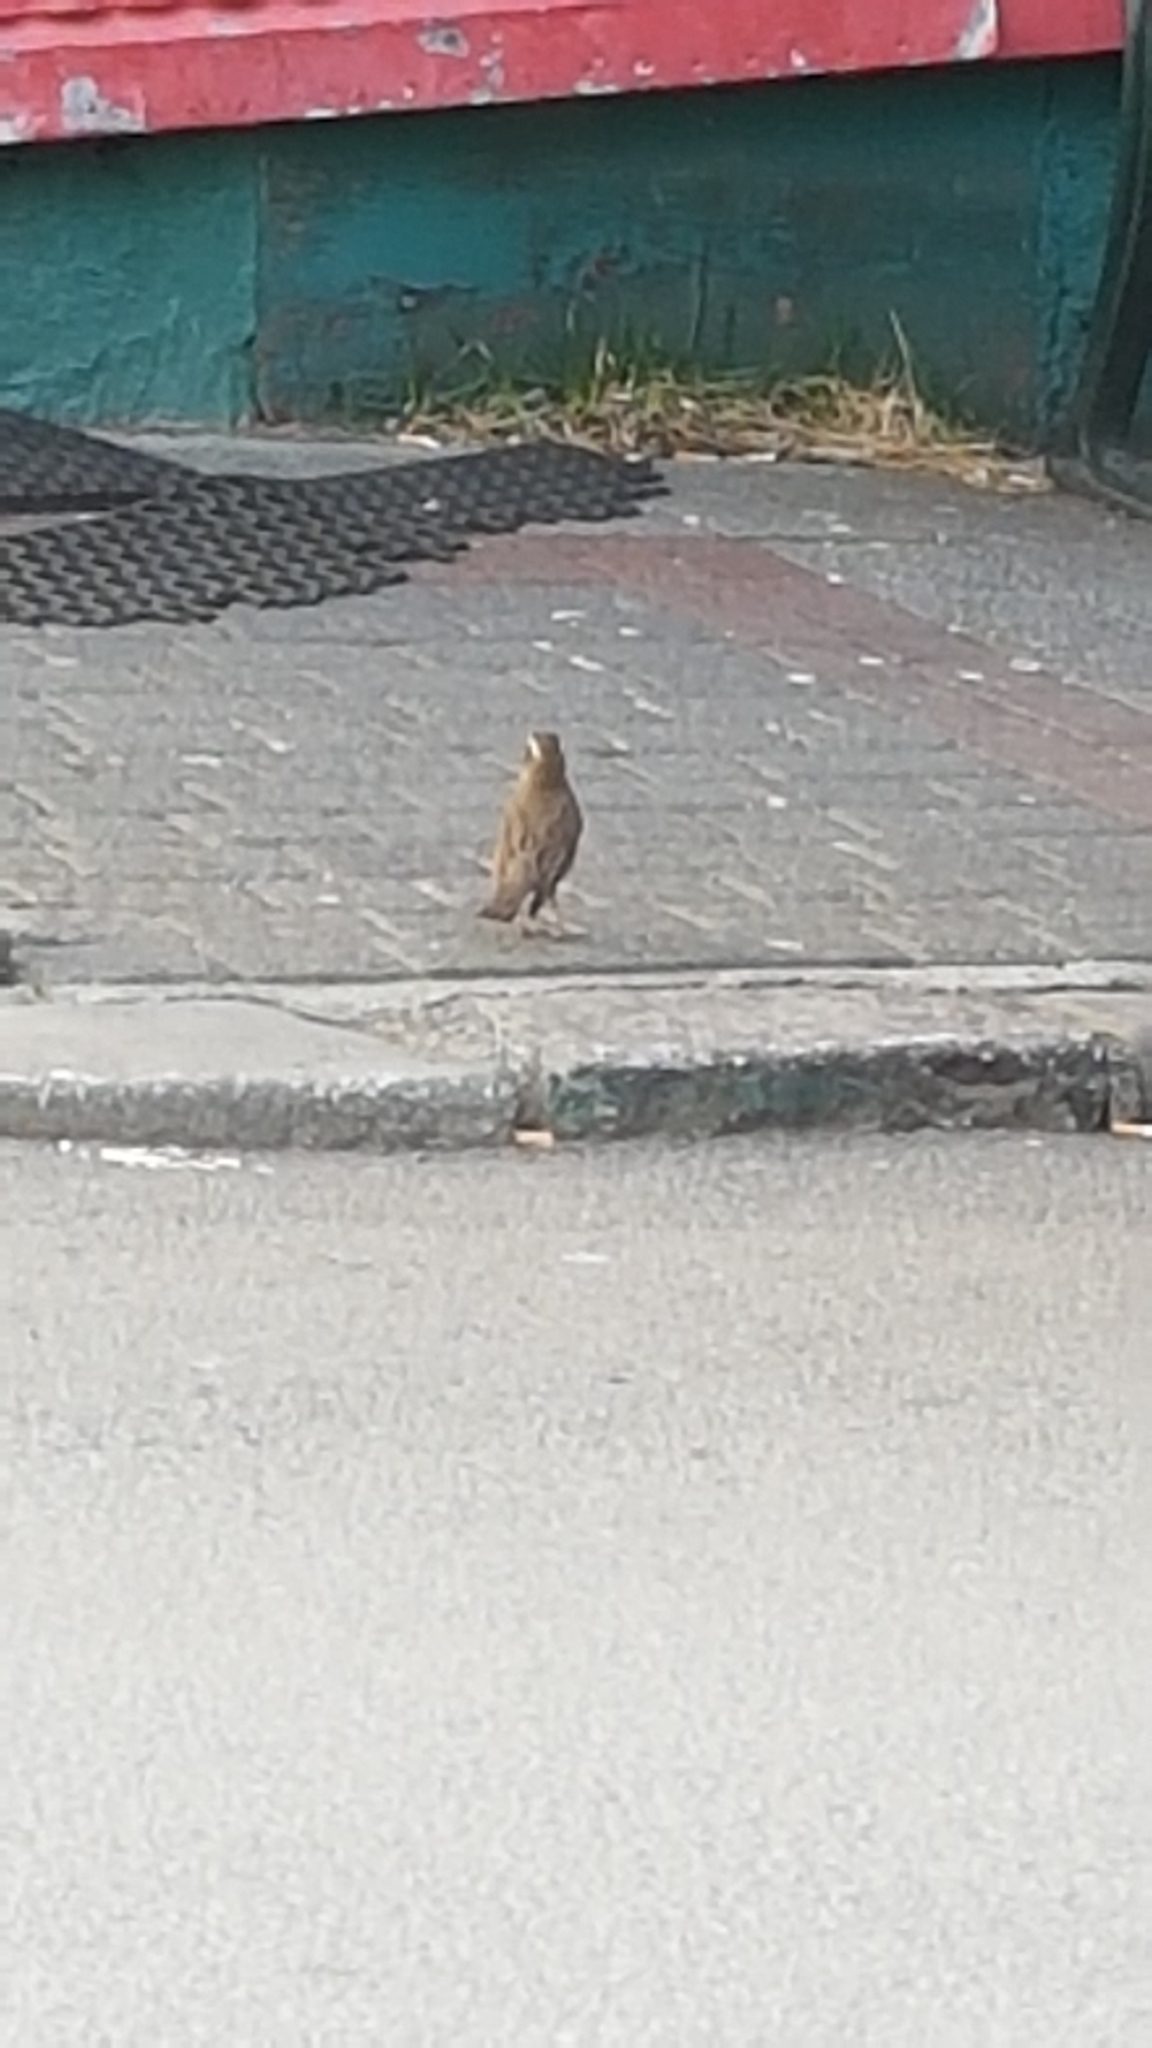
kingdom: Animalia
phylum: Chordata
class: Aves
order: Passeriformes
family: Turdidae
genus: Turdus
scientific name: Turdus iliacus
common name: Redwing
